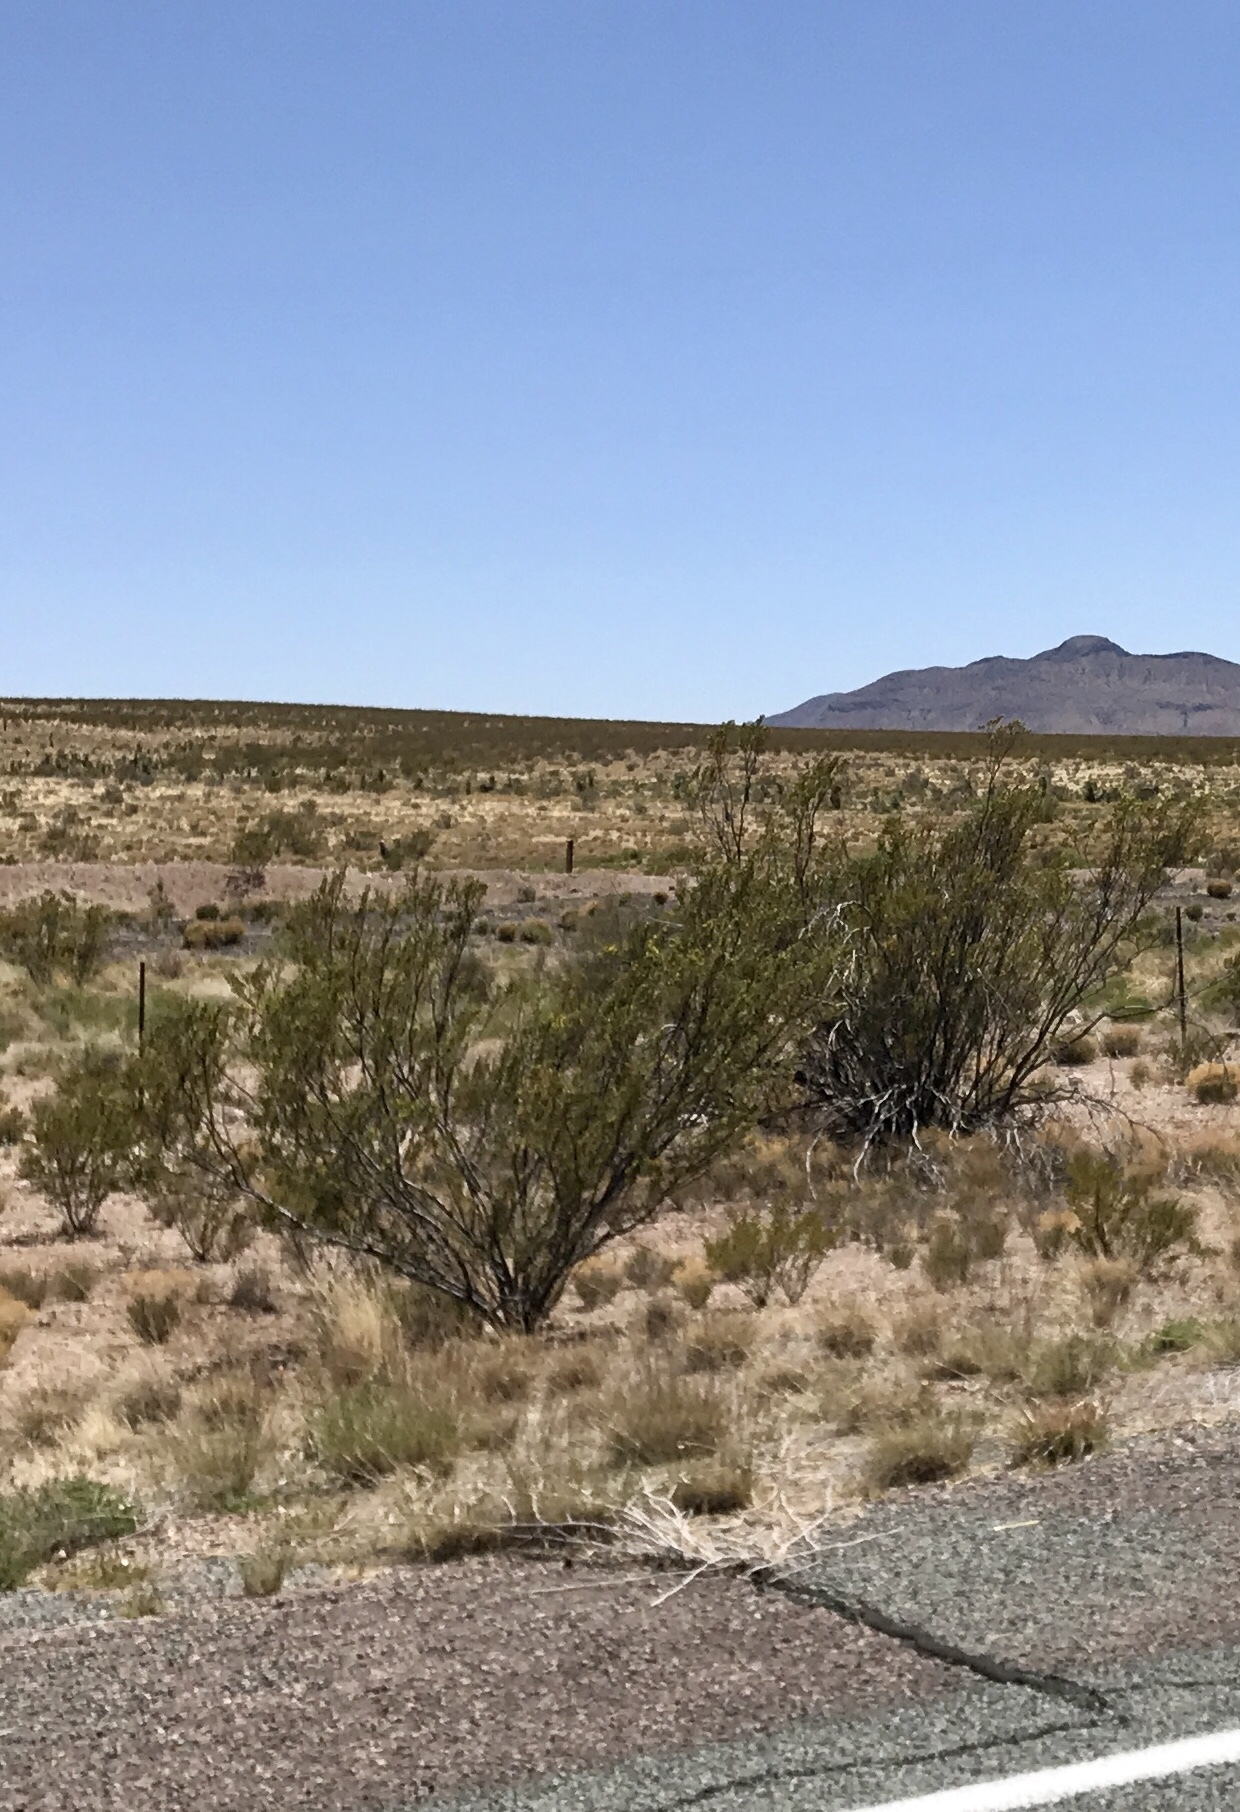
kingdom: Plantae
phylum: Tracheophyta
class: Magnoliopsida
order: Zygophyllales
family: Zygophyllaceae
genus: Larrea
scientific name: Larrea tridentata
